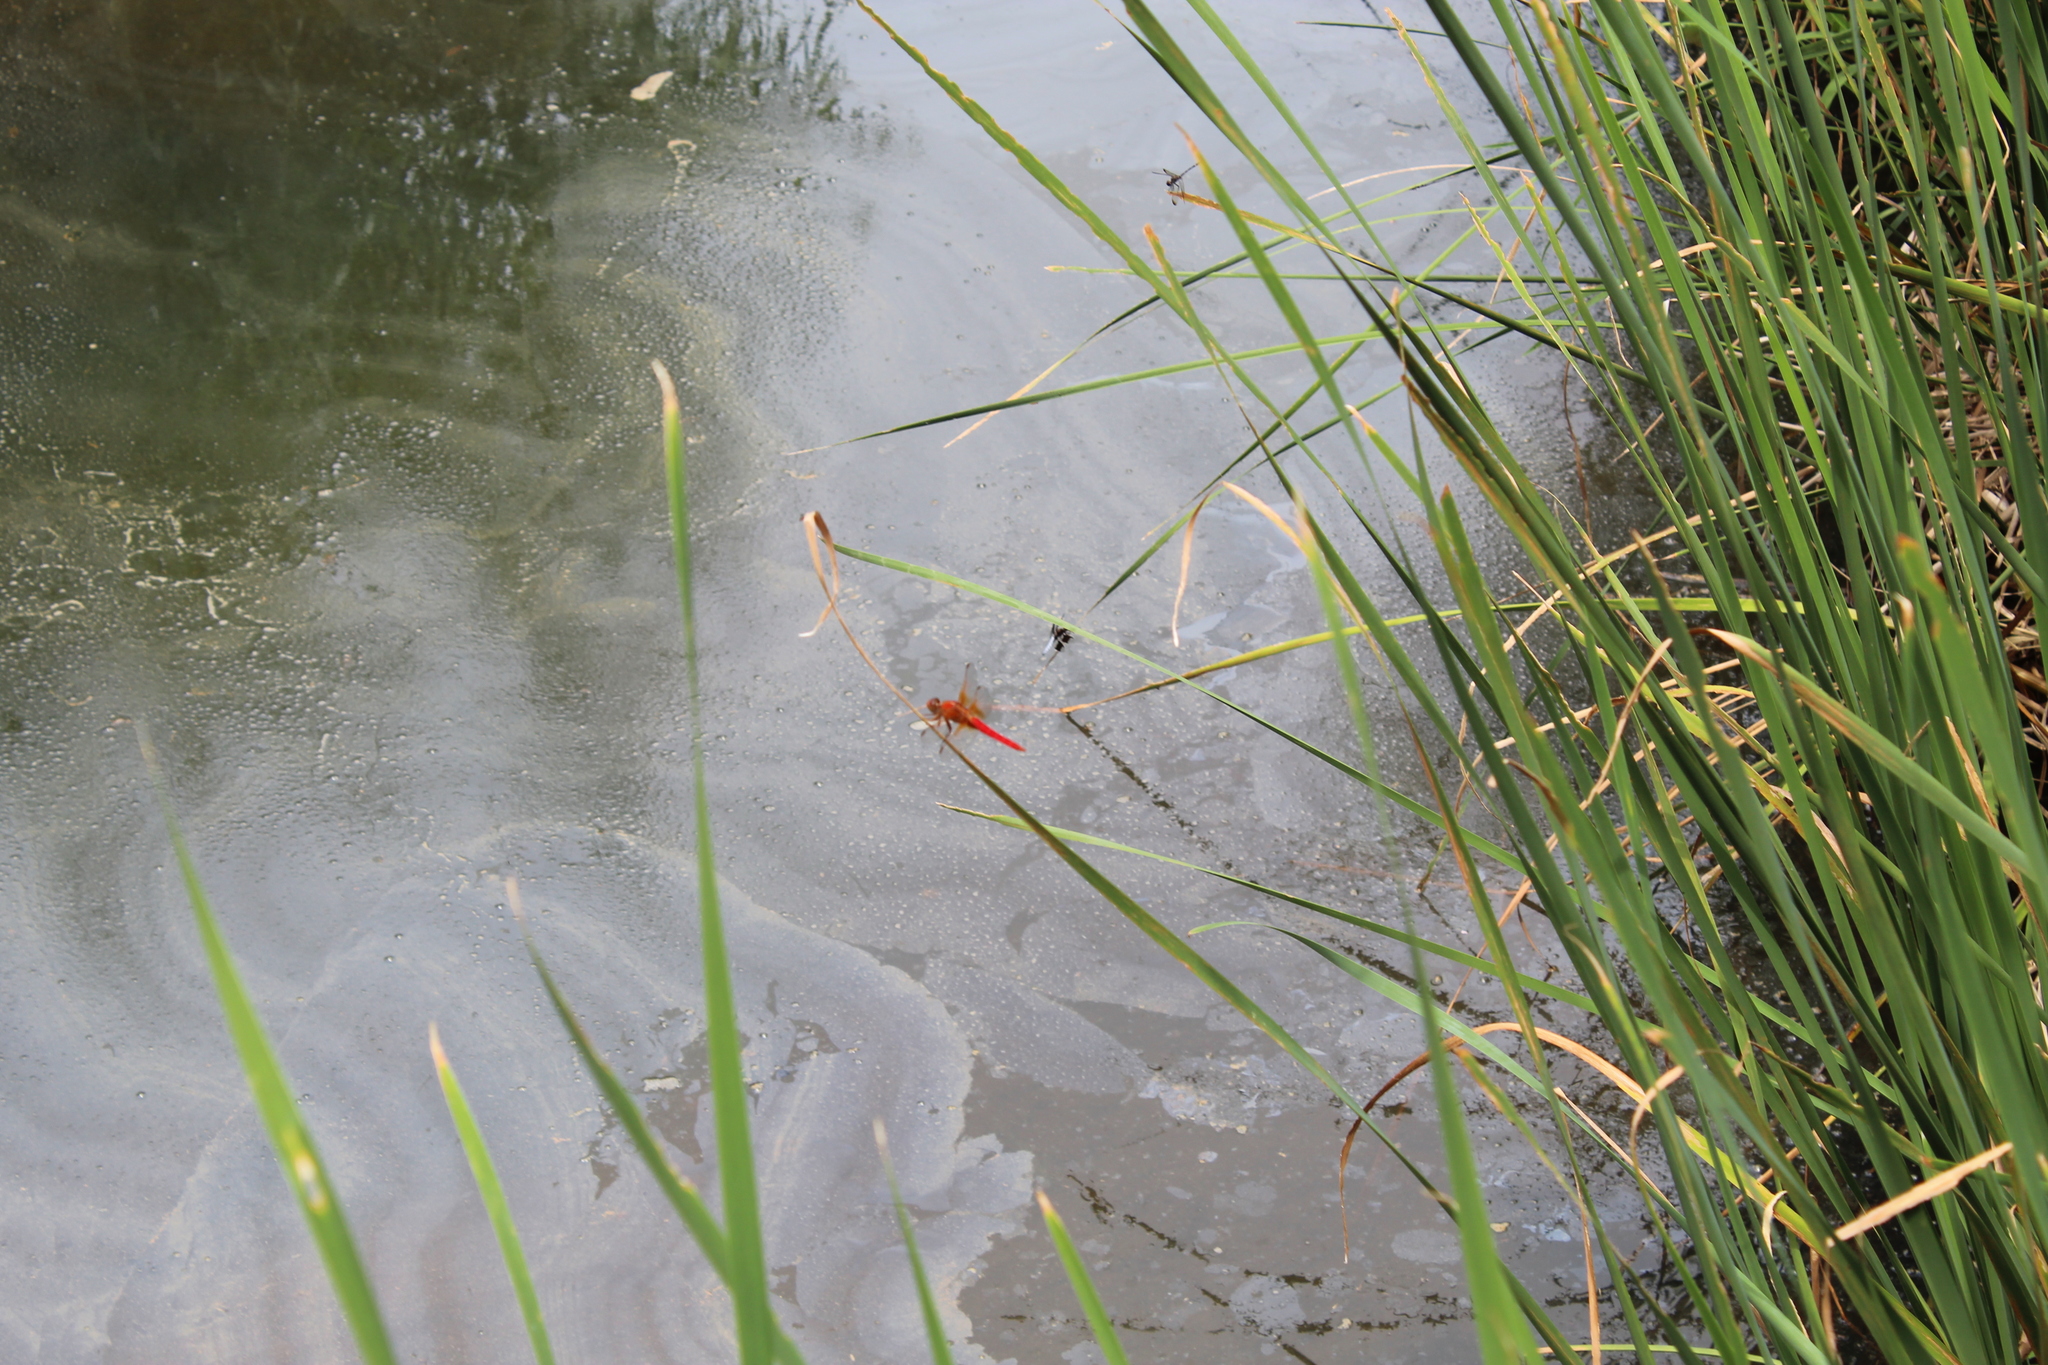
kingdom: Animalia
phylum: Arthropoda
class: Insecta
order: Odonata
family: Libellulidae
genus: Libellula
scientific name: Libellula croceipennis
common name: Neon skimmer
